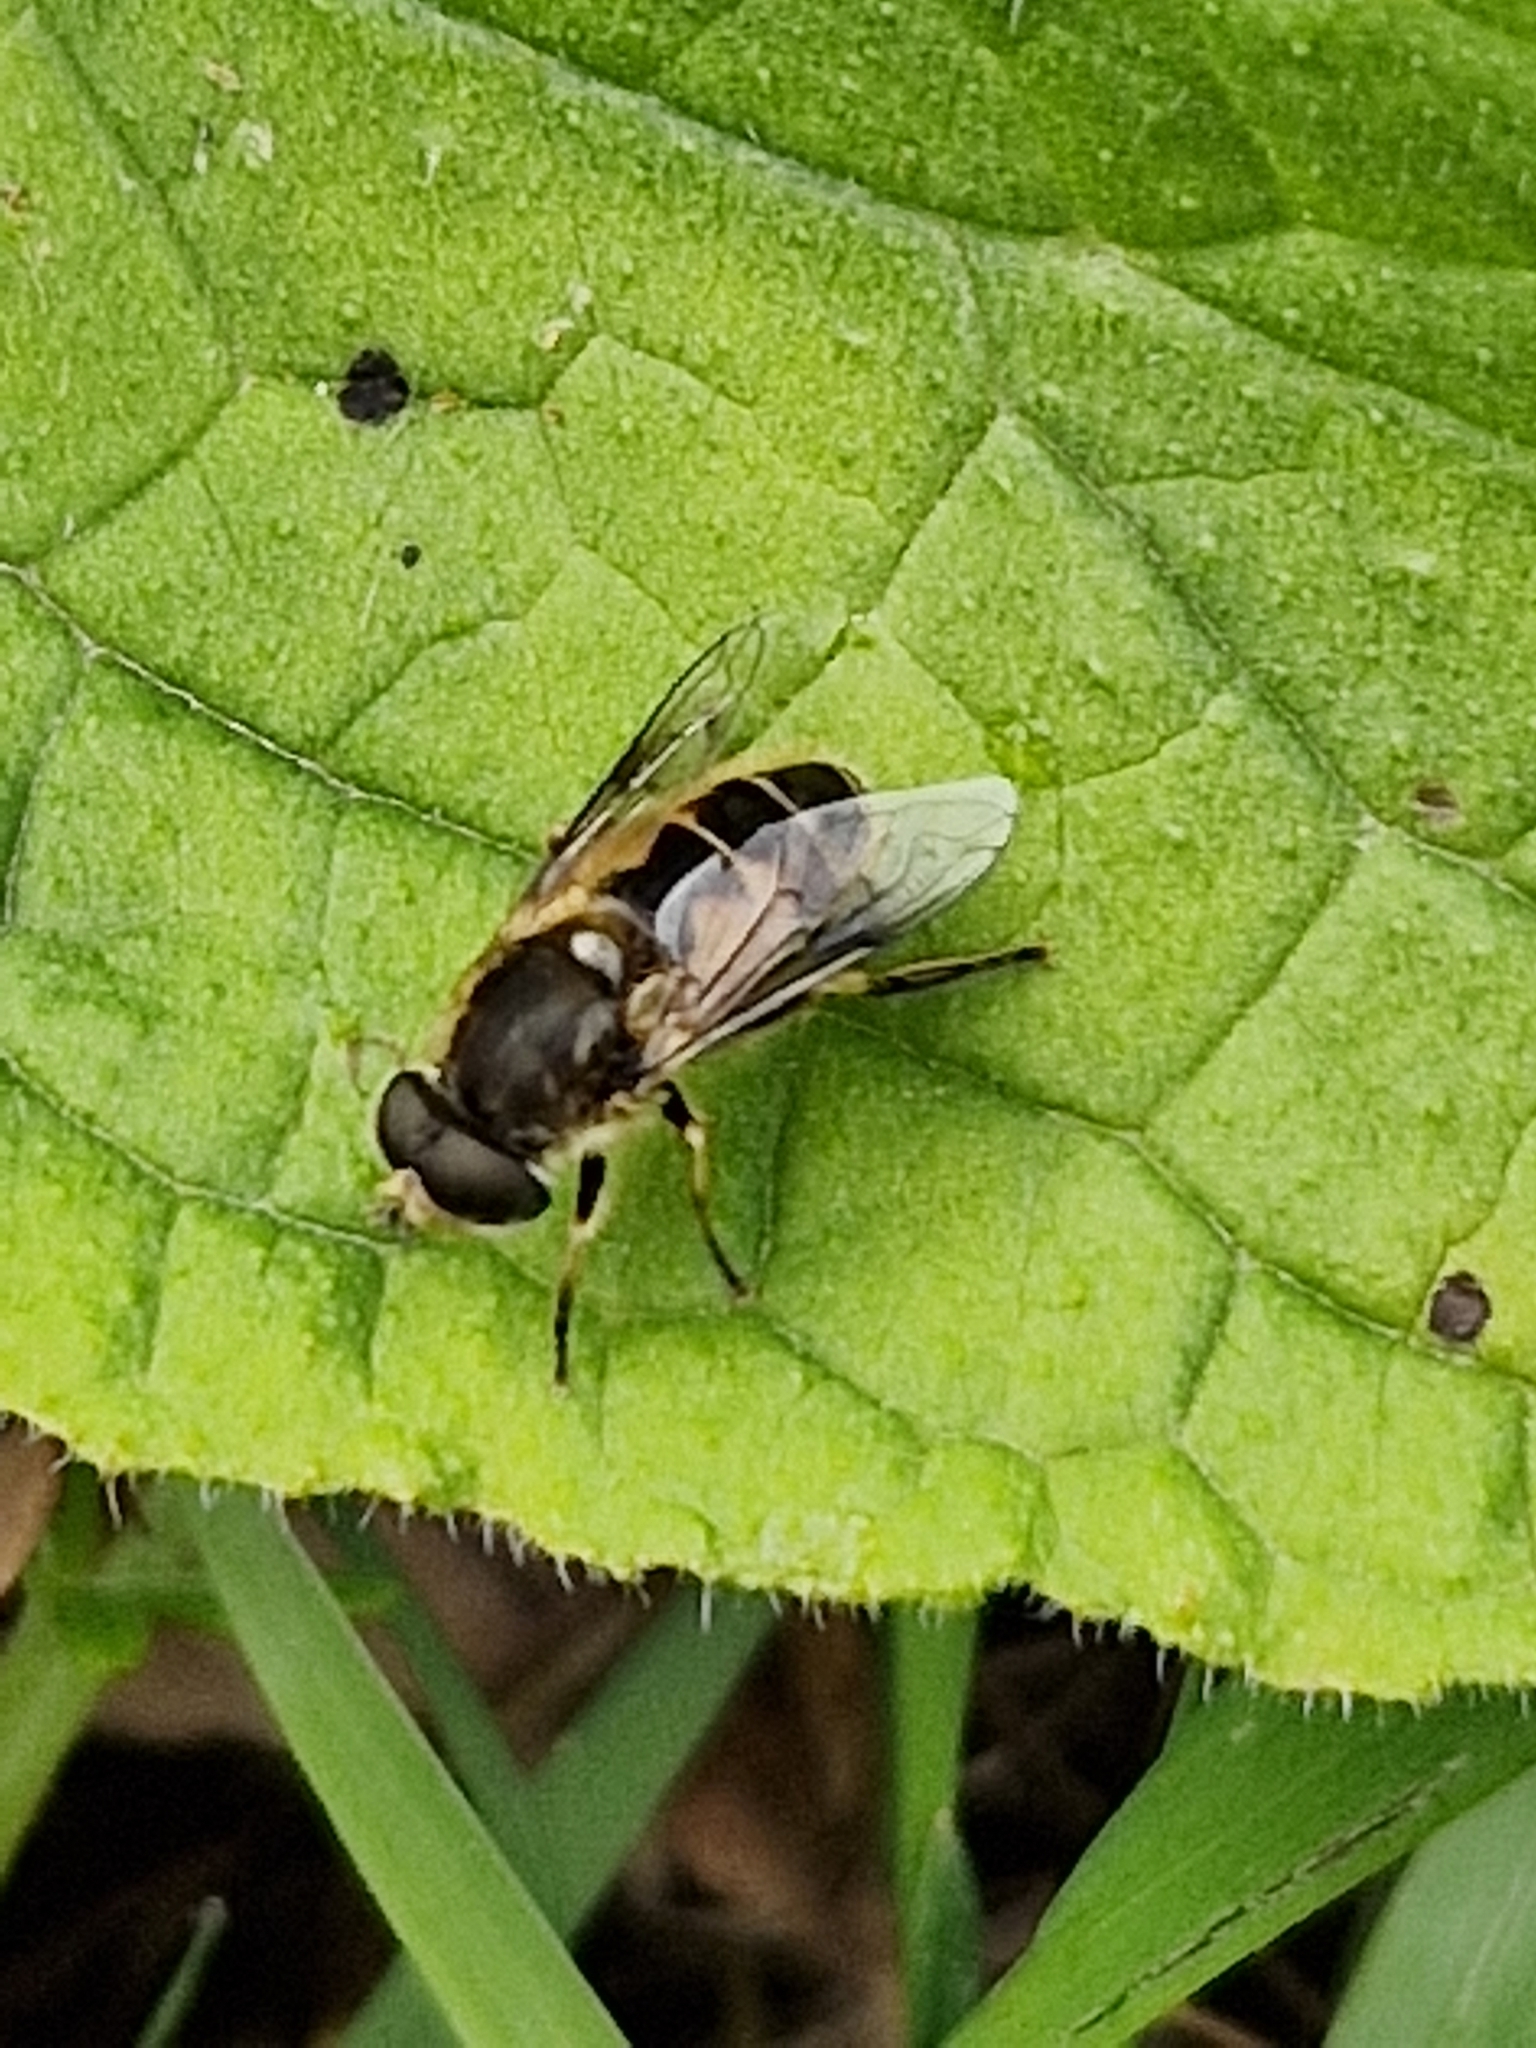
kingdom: Animalia
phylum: Arthropoda
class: Insecta
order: Diptera
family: Syrphidae
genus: Eristalis
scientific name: Eristalis arbustorum
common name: Hover fly
